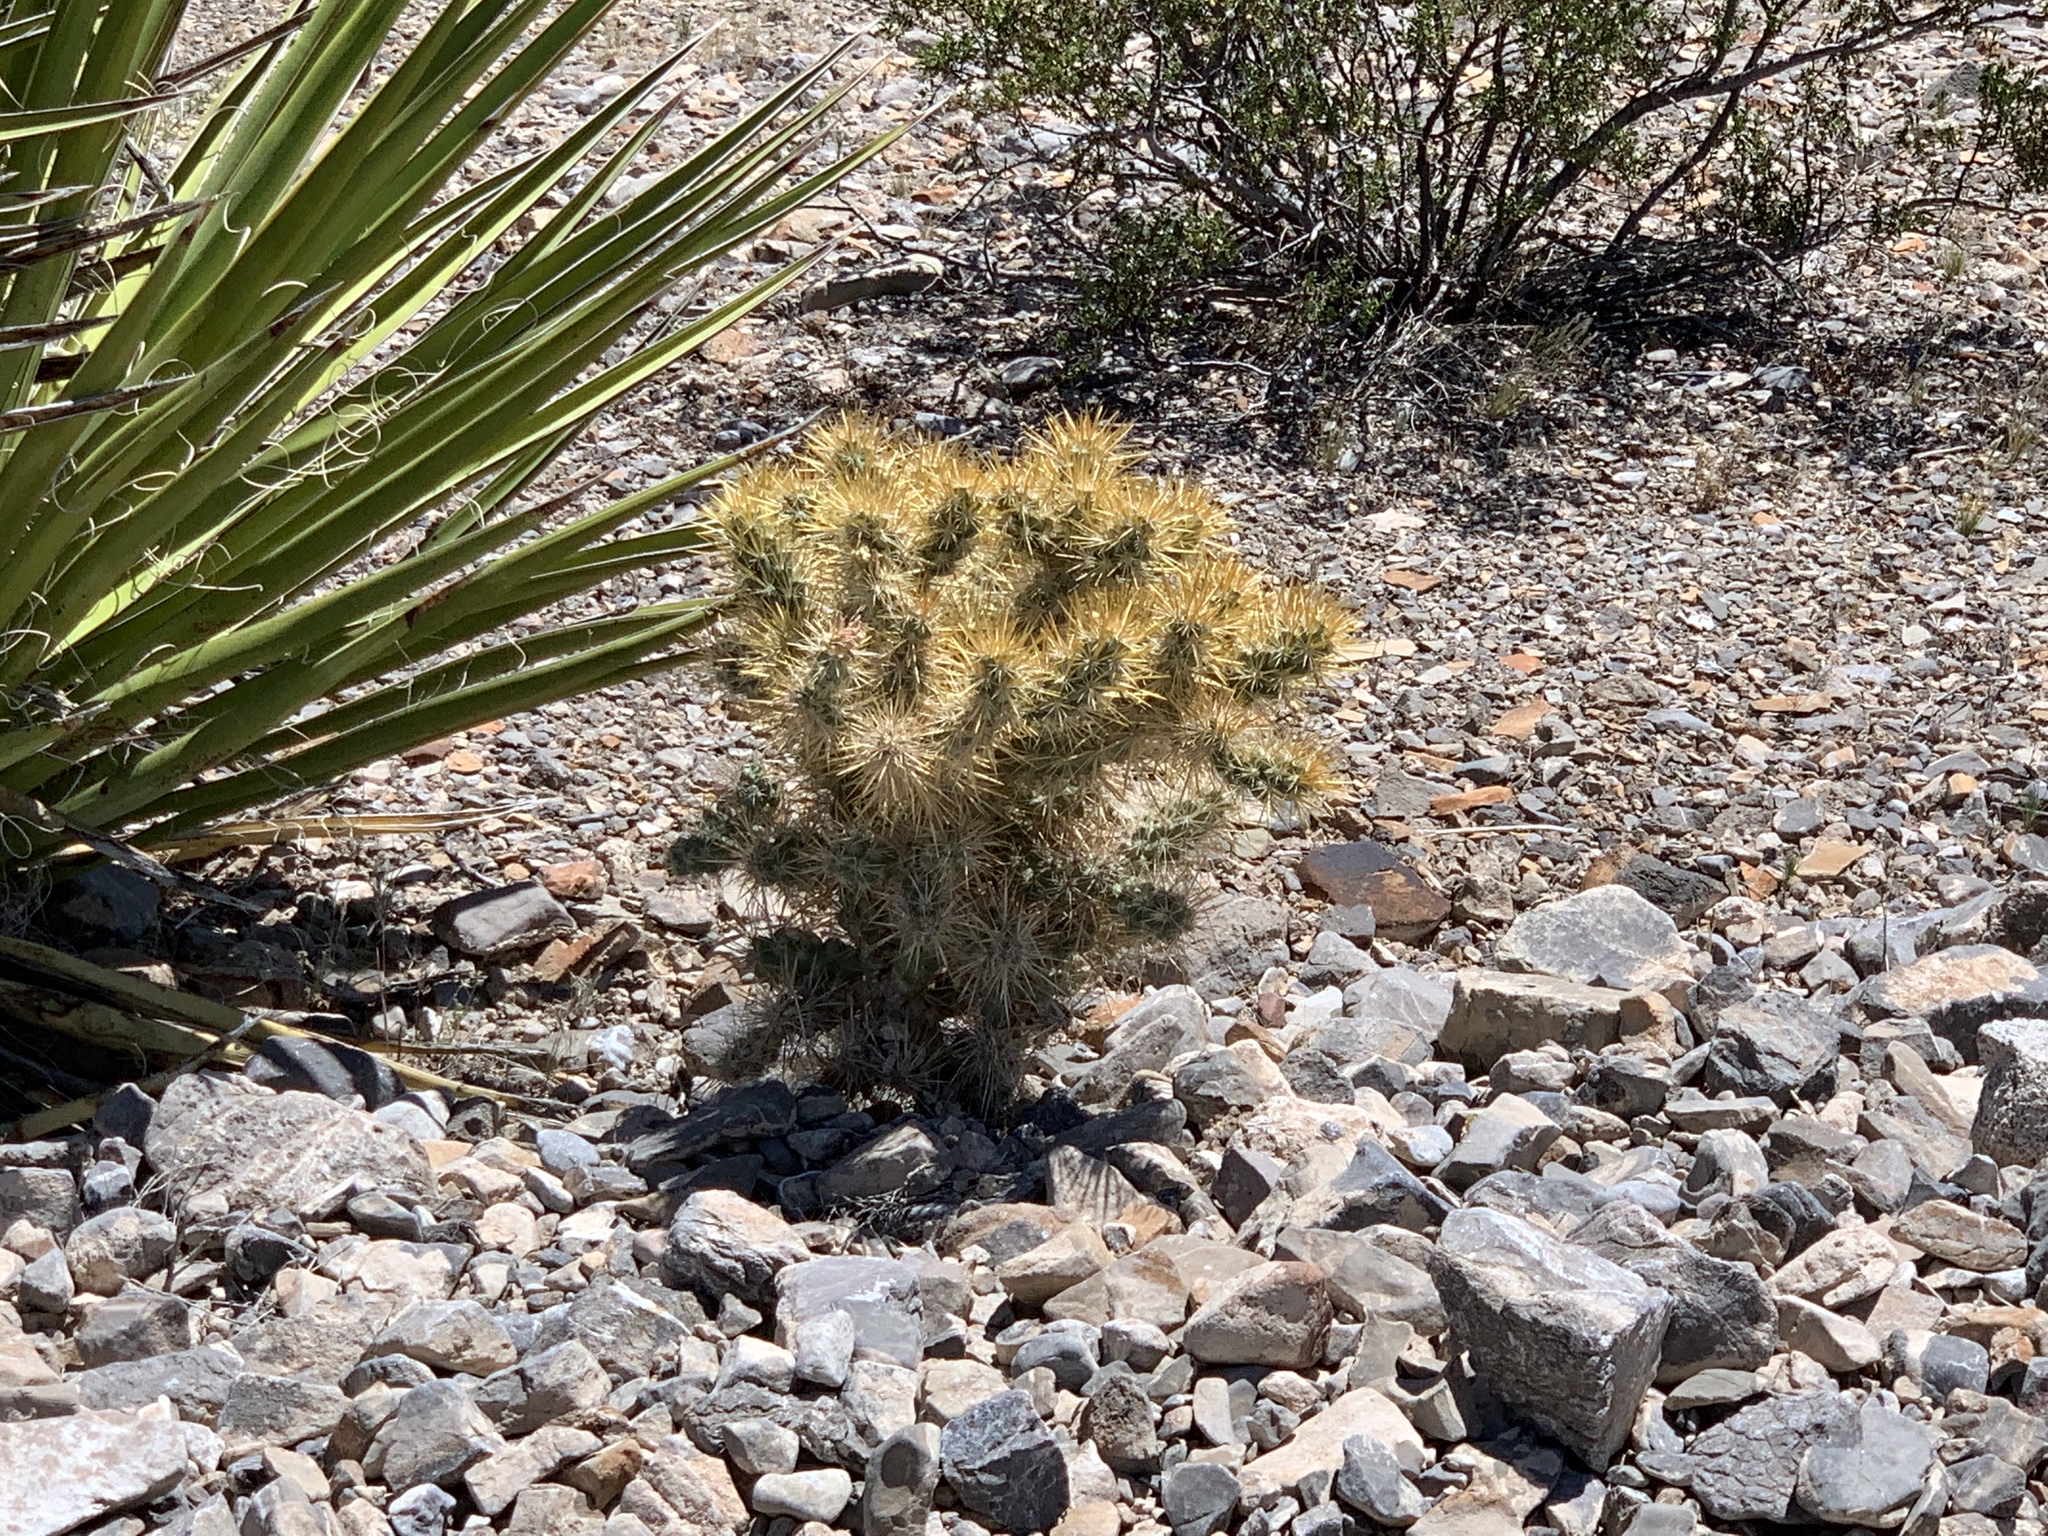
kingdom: Plantae
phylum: Tracheophyta
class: Magnoliopsida
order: Caryophyllales
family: Cactaceae
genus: Cylindropuntia
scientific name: Cylindropuntia echinocarpa
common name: Ground cholla
